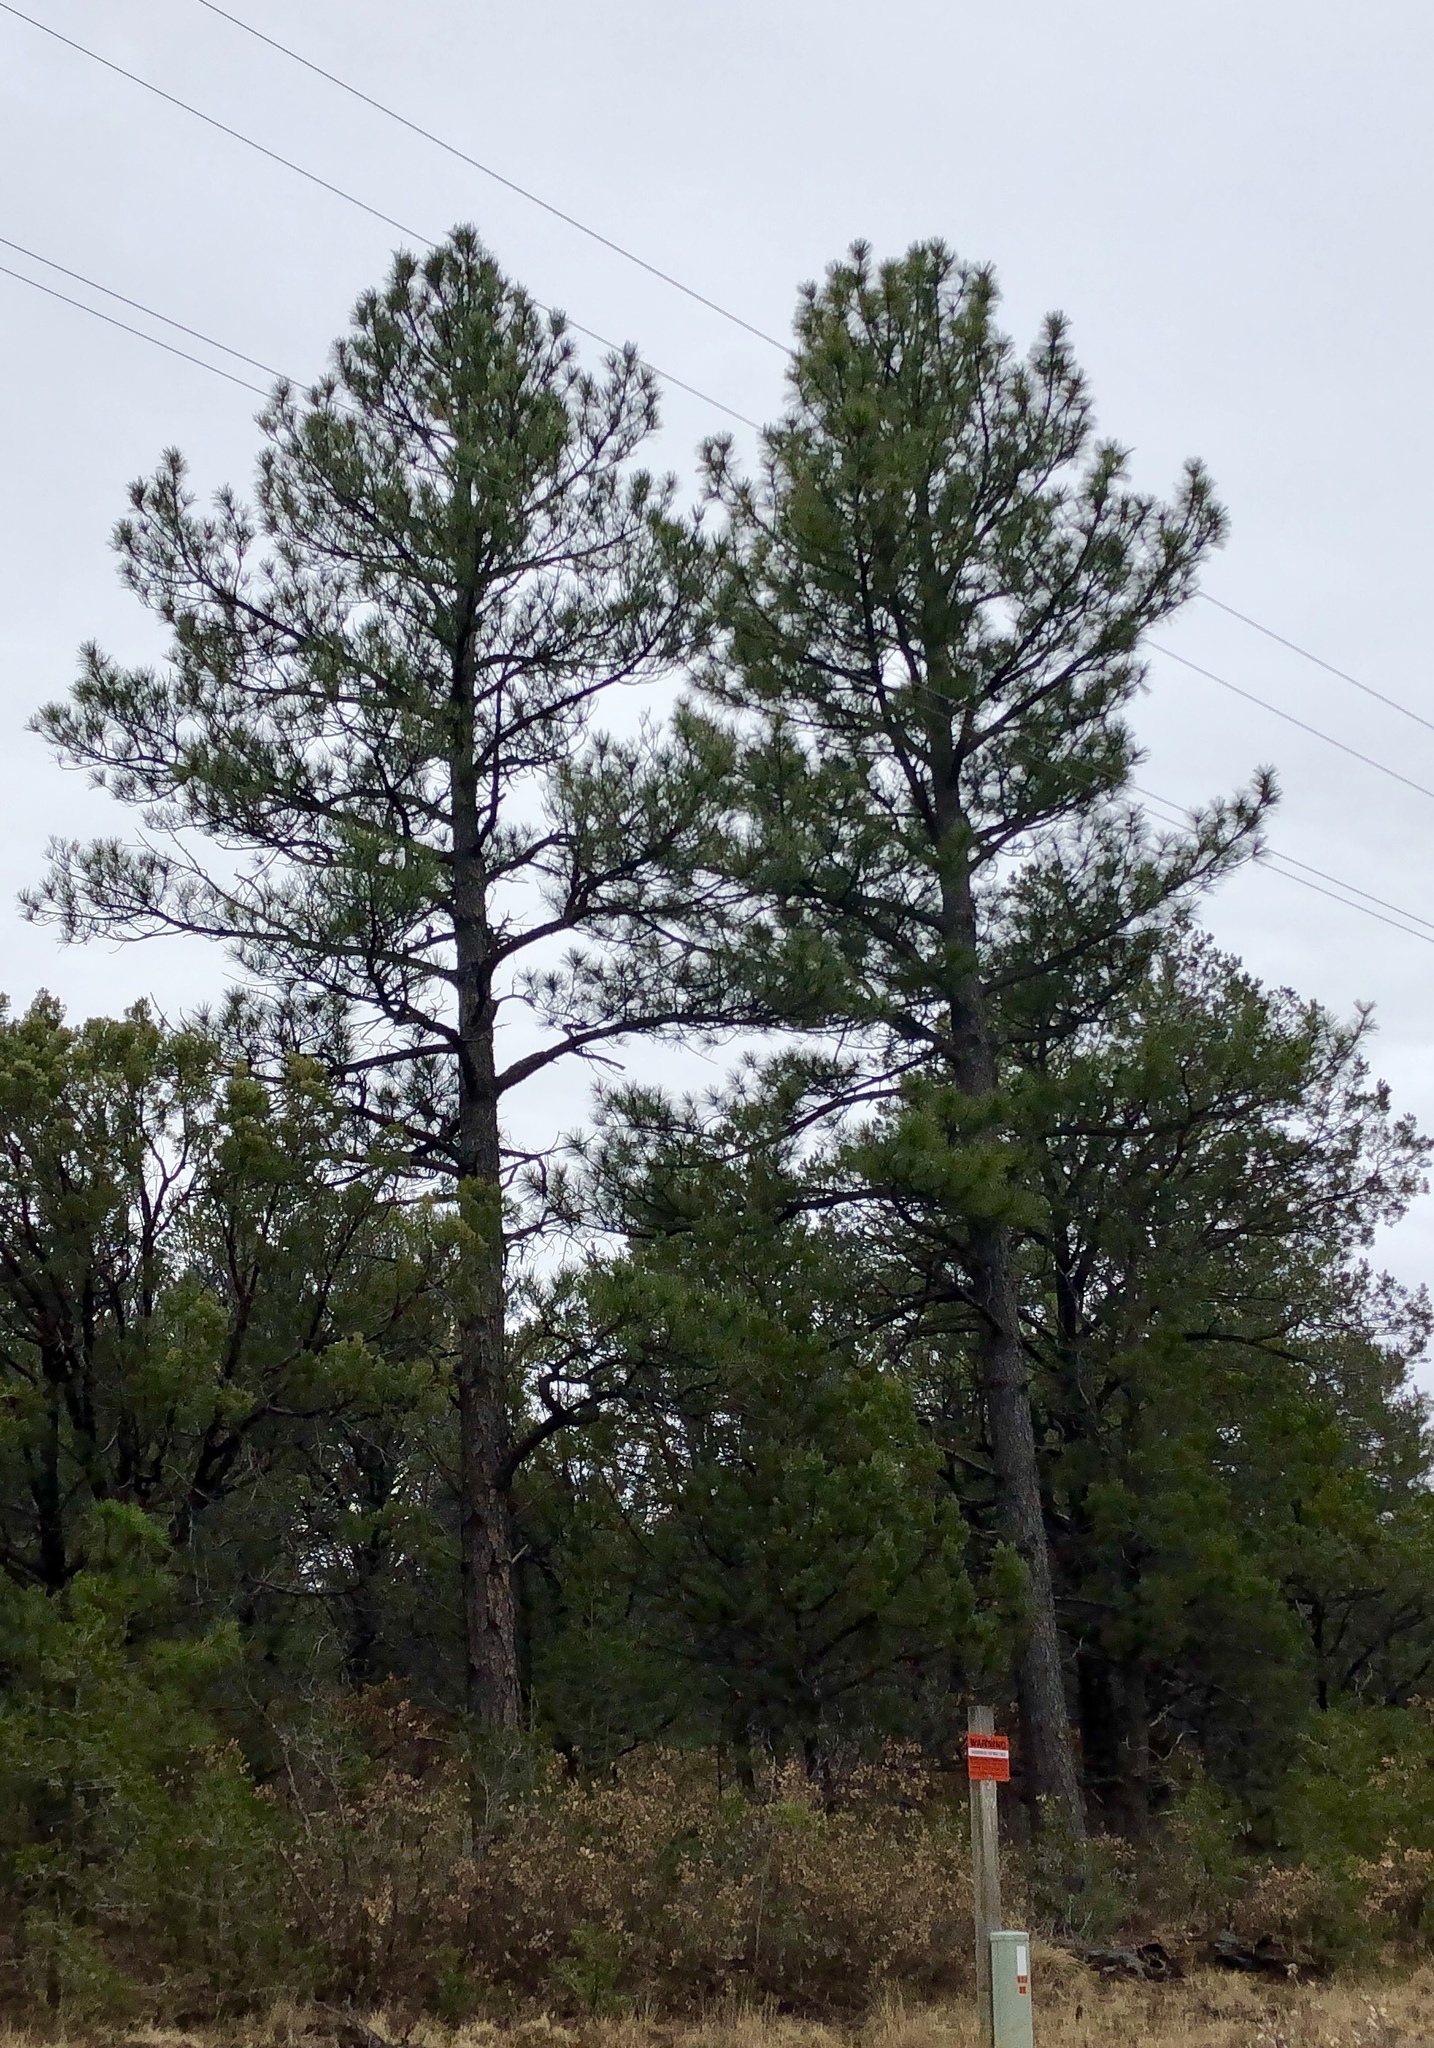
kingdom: Plantae
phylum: Tracheophyta
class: Pinopsida
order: Pinales
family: Pinaceae
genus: Pinus
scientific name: Pinus ponderosa
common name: Western yellow-pine
